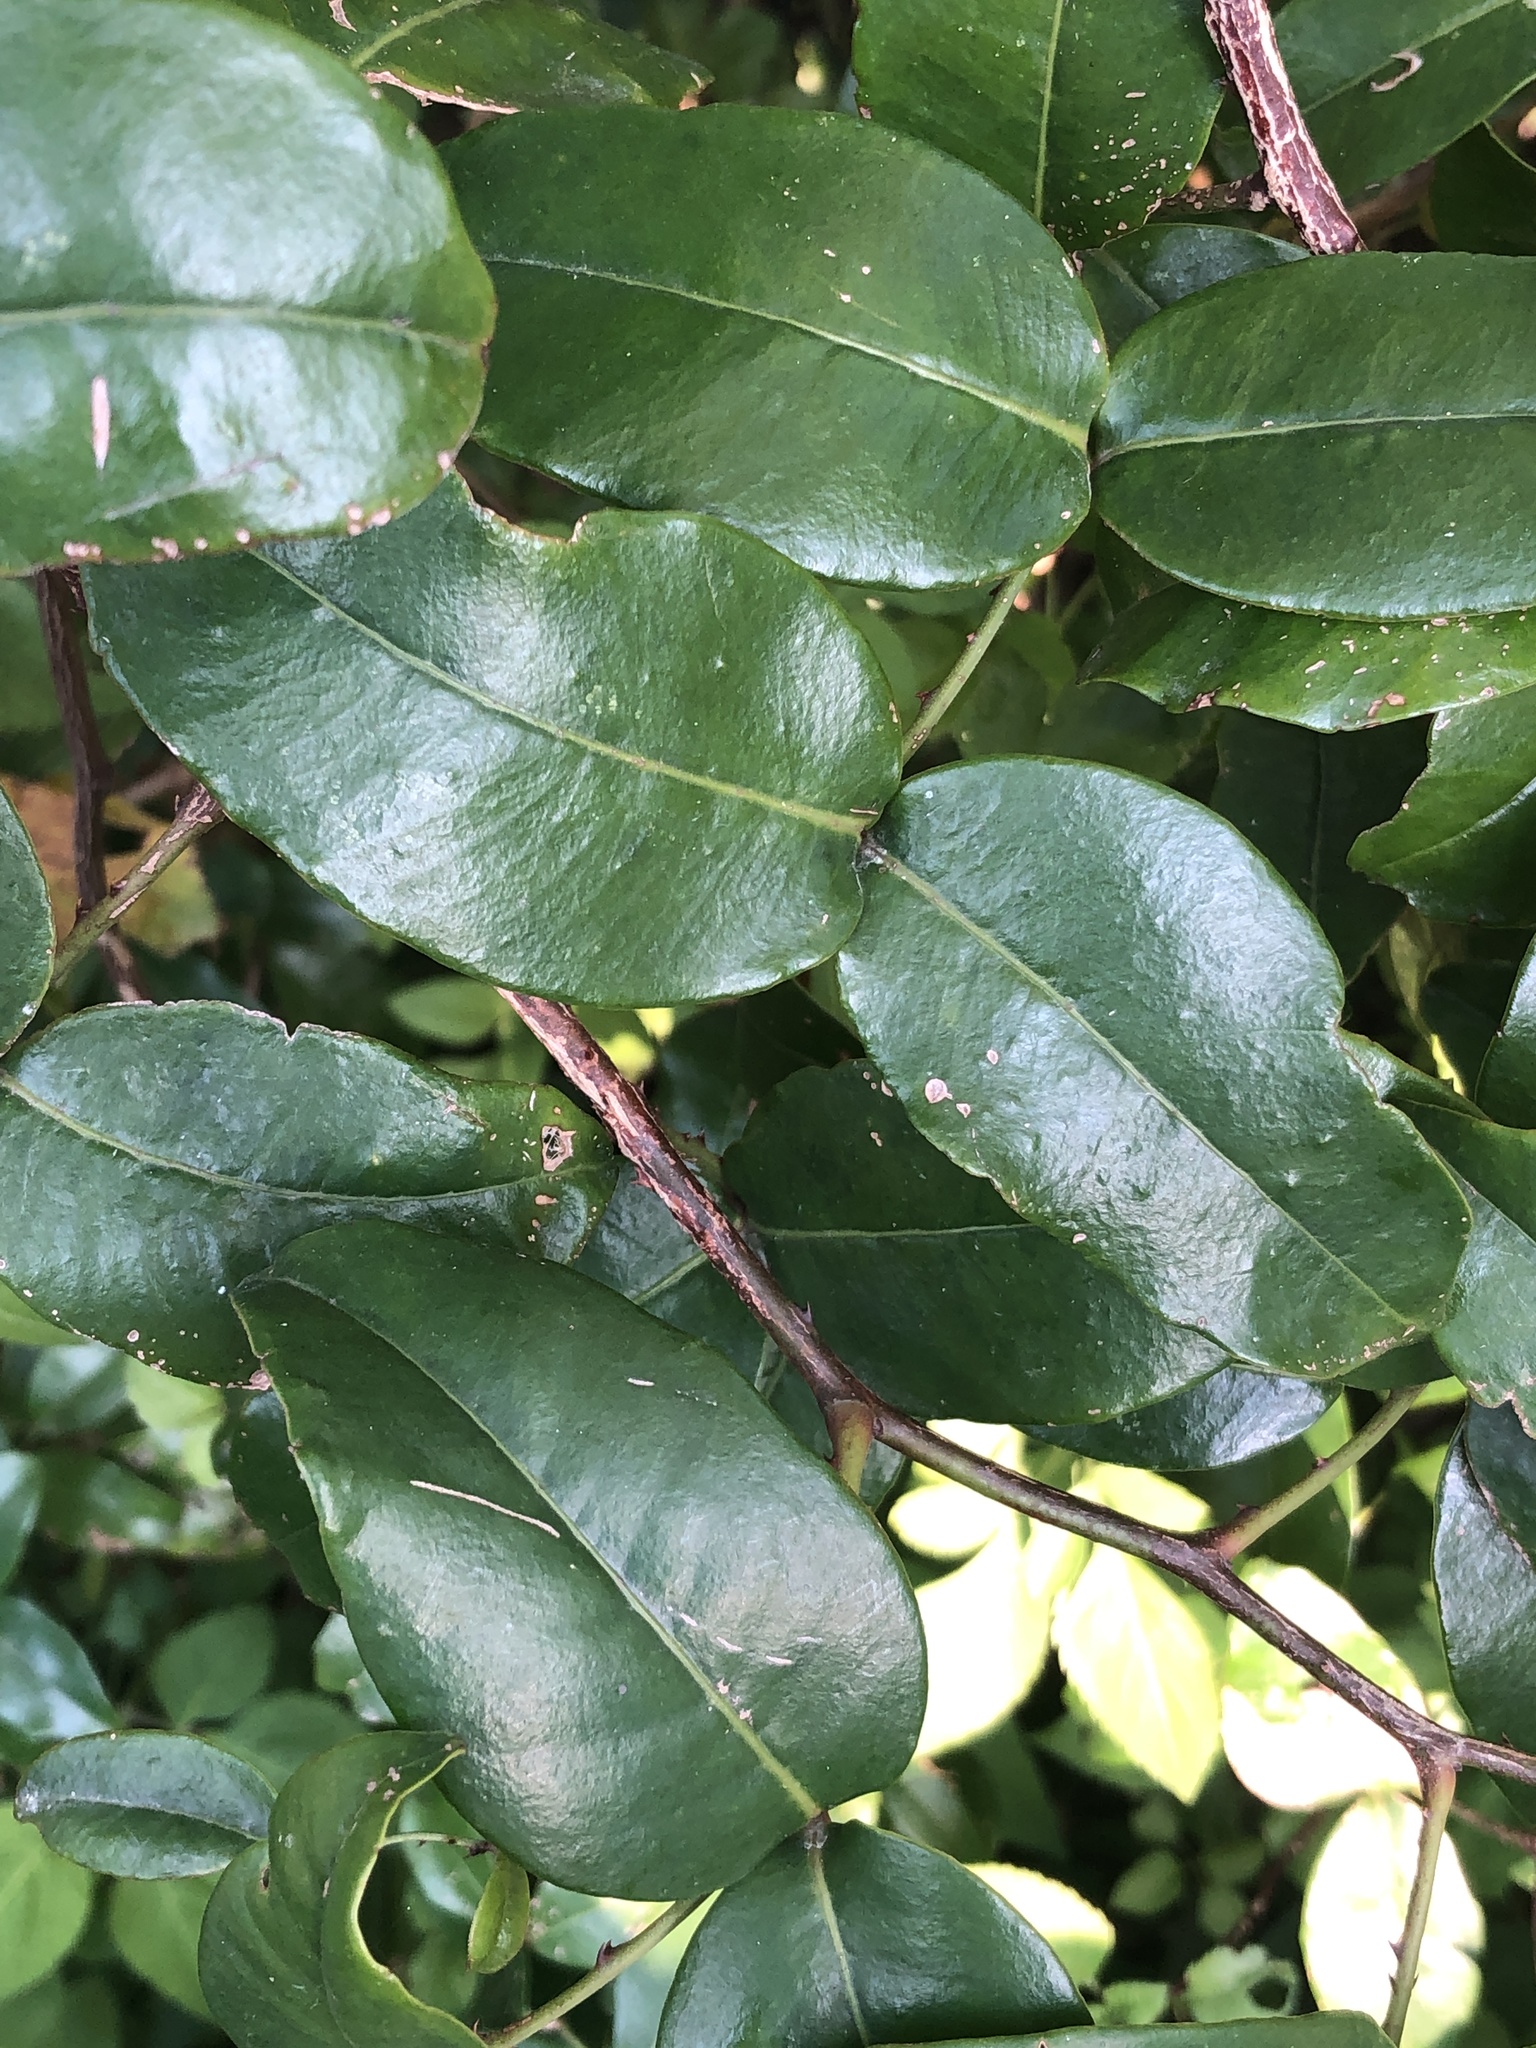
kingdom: Plantae
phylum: Tracheophyta
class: Magnoliopsida
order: Sapindales
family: Rutaceae
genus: Zanthoxylum
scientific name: Zanthoxylum nitidum
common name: Shiny-leaf prickly-ash
